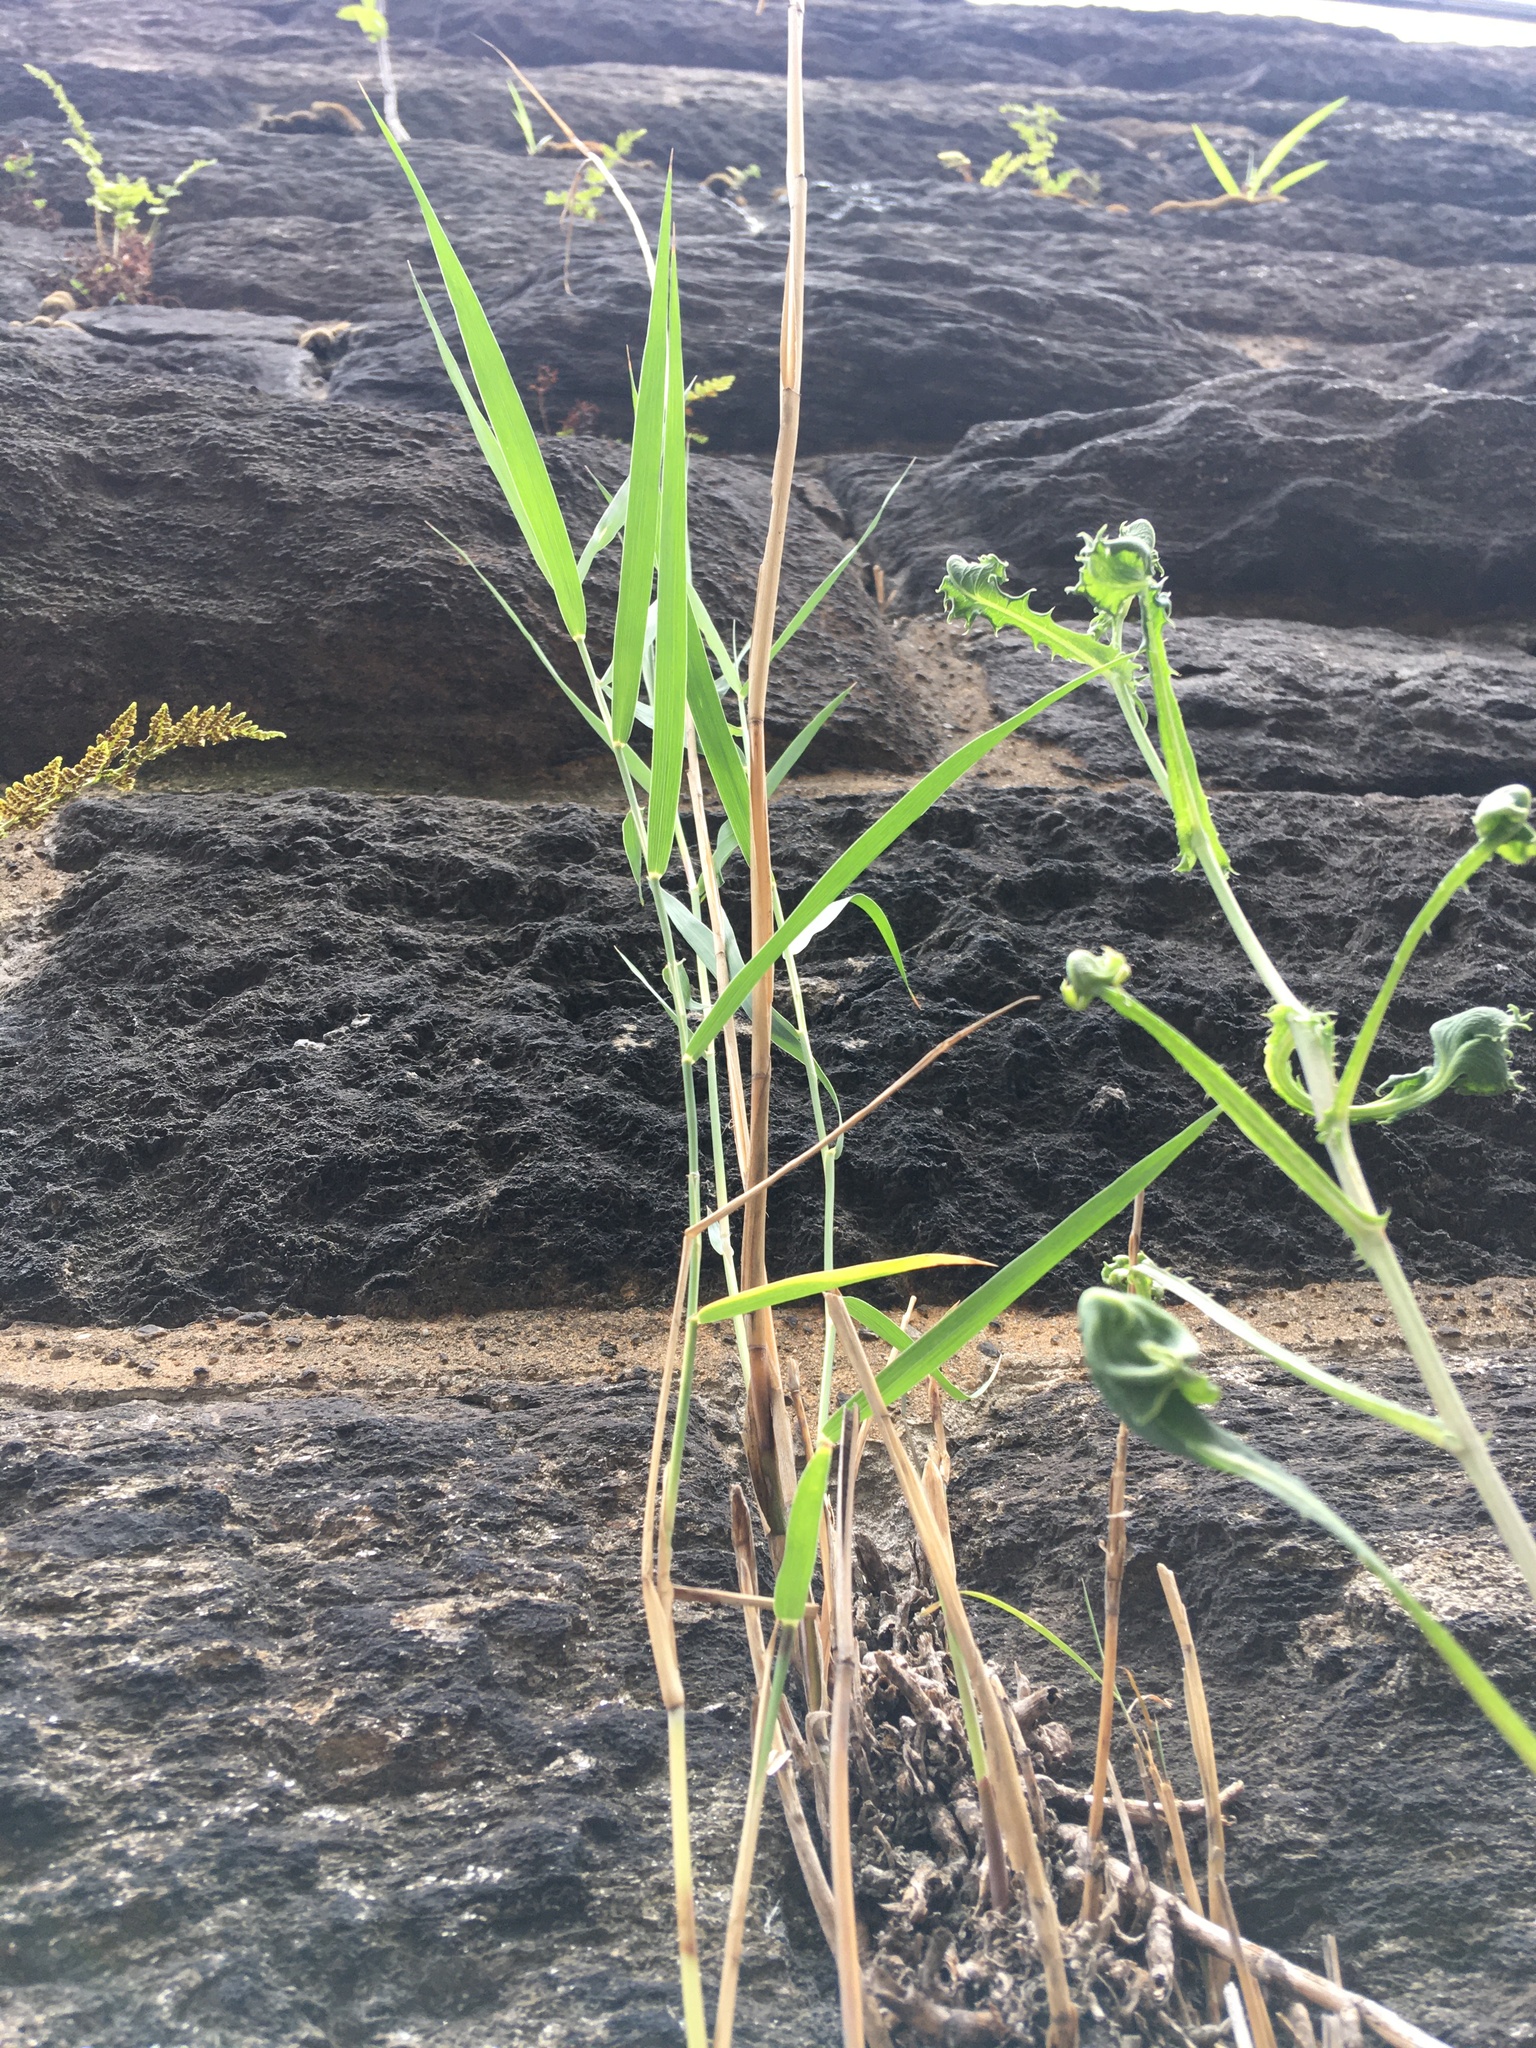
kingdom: Plantae
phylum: Tracheophyta
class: Liliopsida
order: Poales
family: Poaceae
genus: Phragmites
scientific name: Phragmites australis
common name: Common reed
